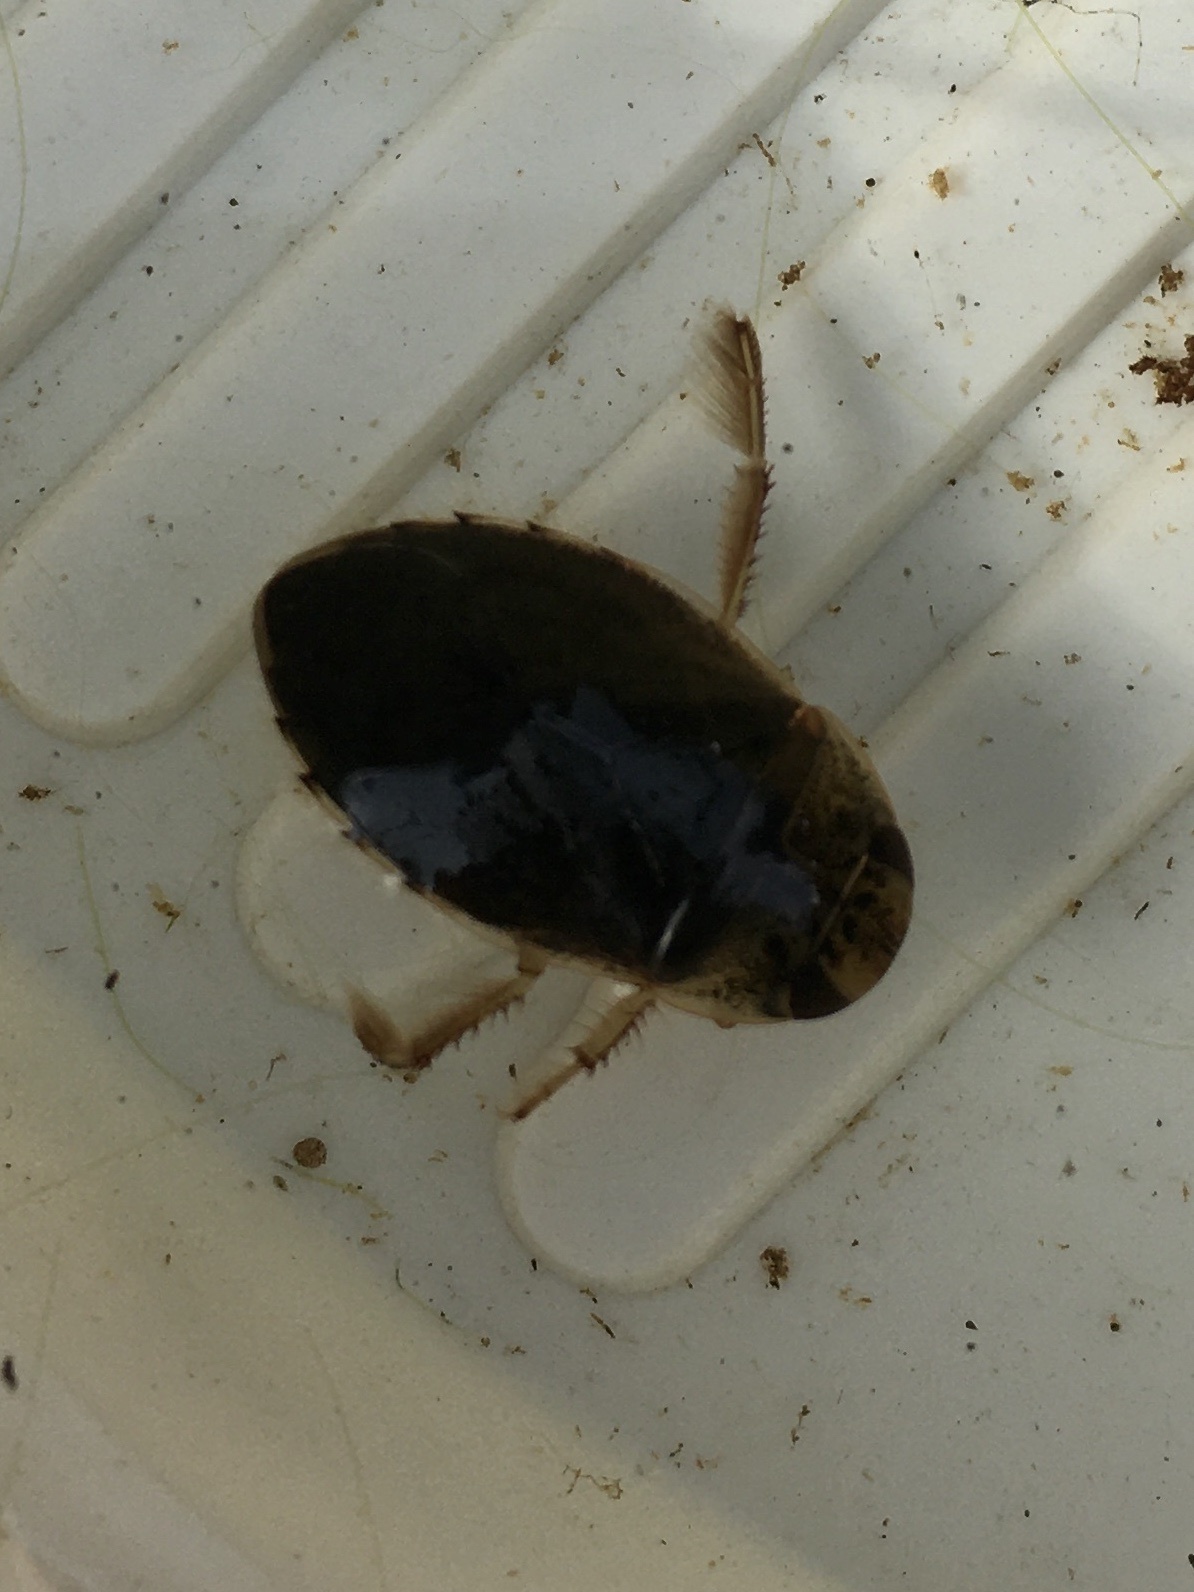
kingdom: Animalia
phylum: Arthropoda
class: Insecta
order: Hemiptera
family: Naucoridae
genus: Ilyocoris
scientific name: Ilyocoris cimicoides
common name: Saucer bugs
